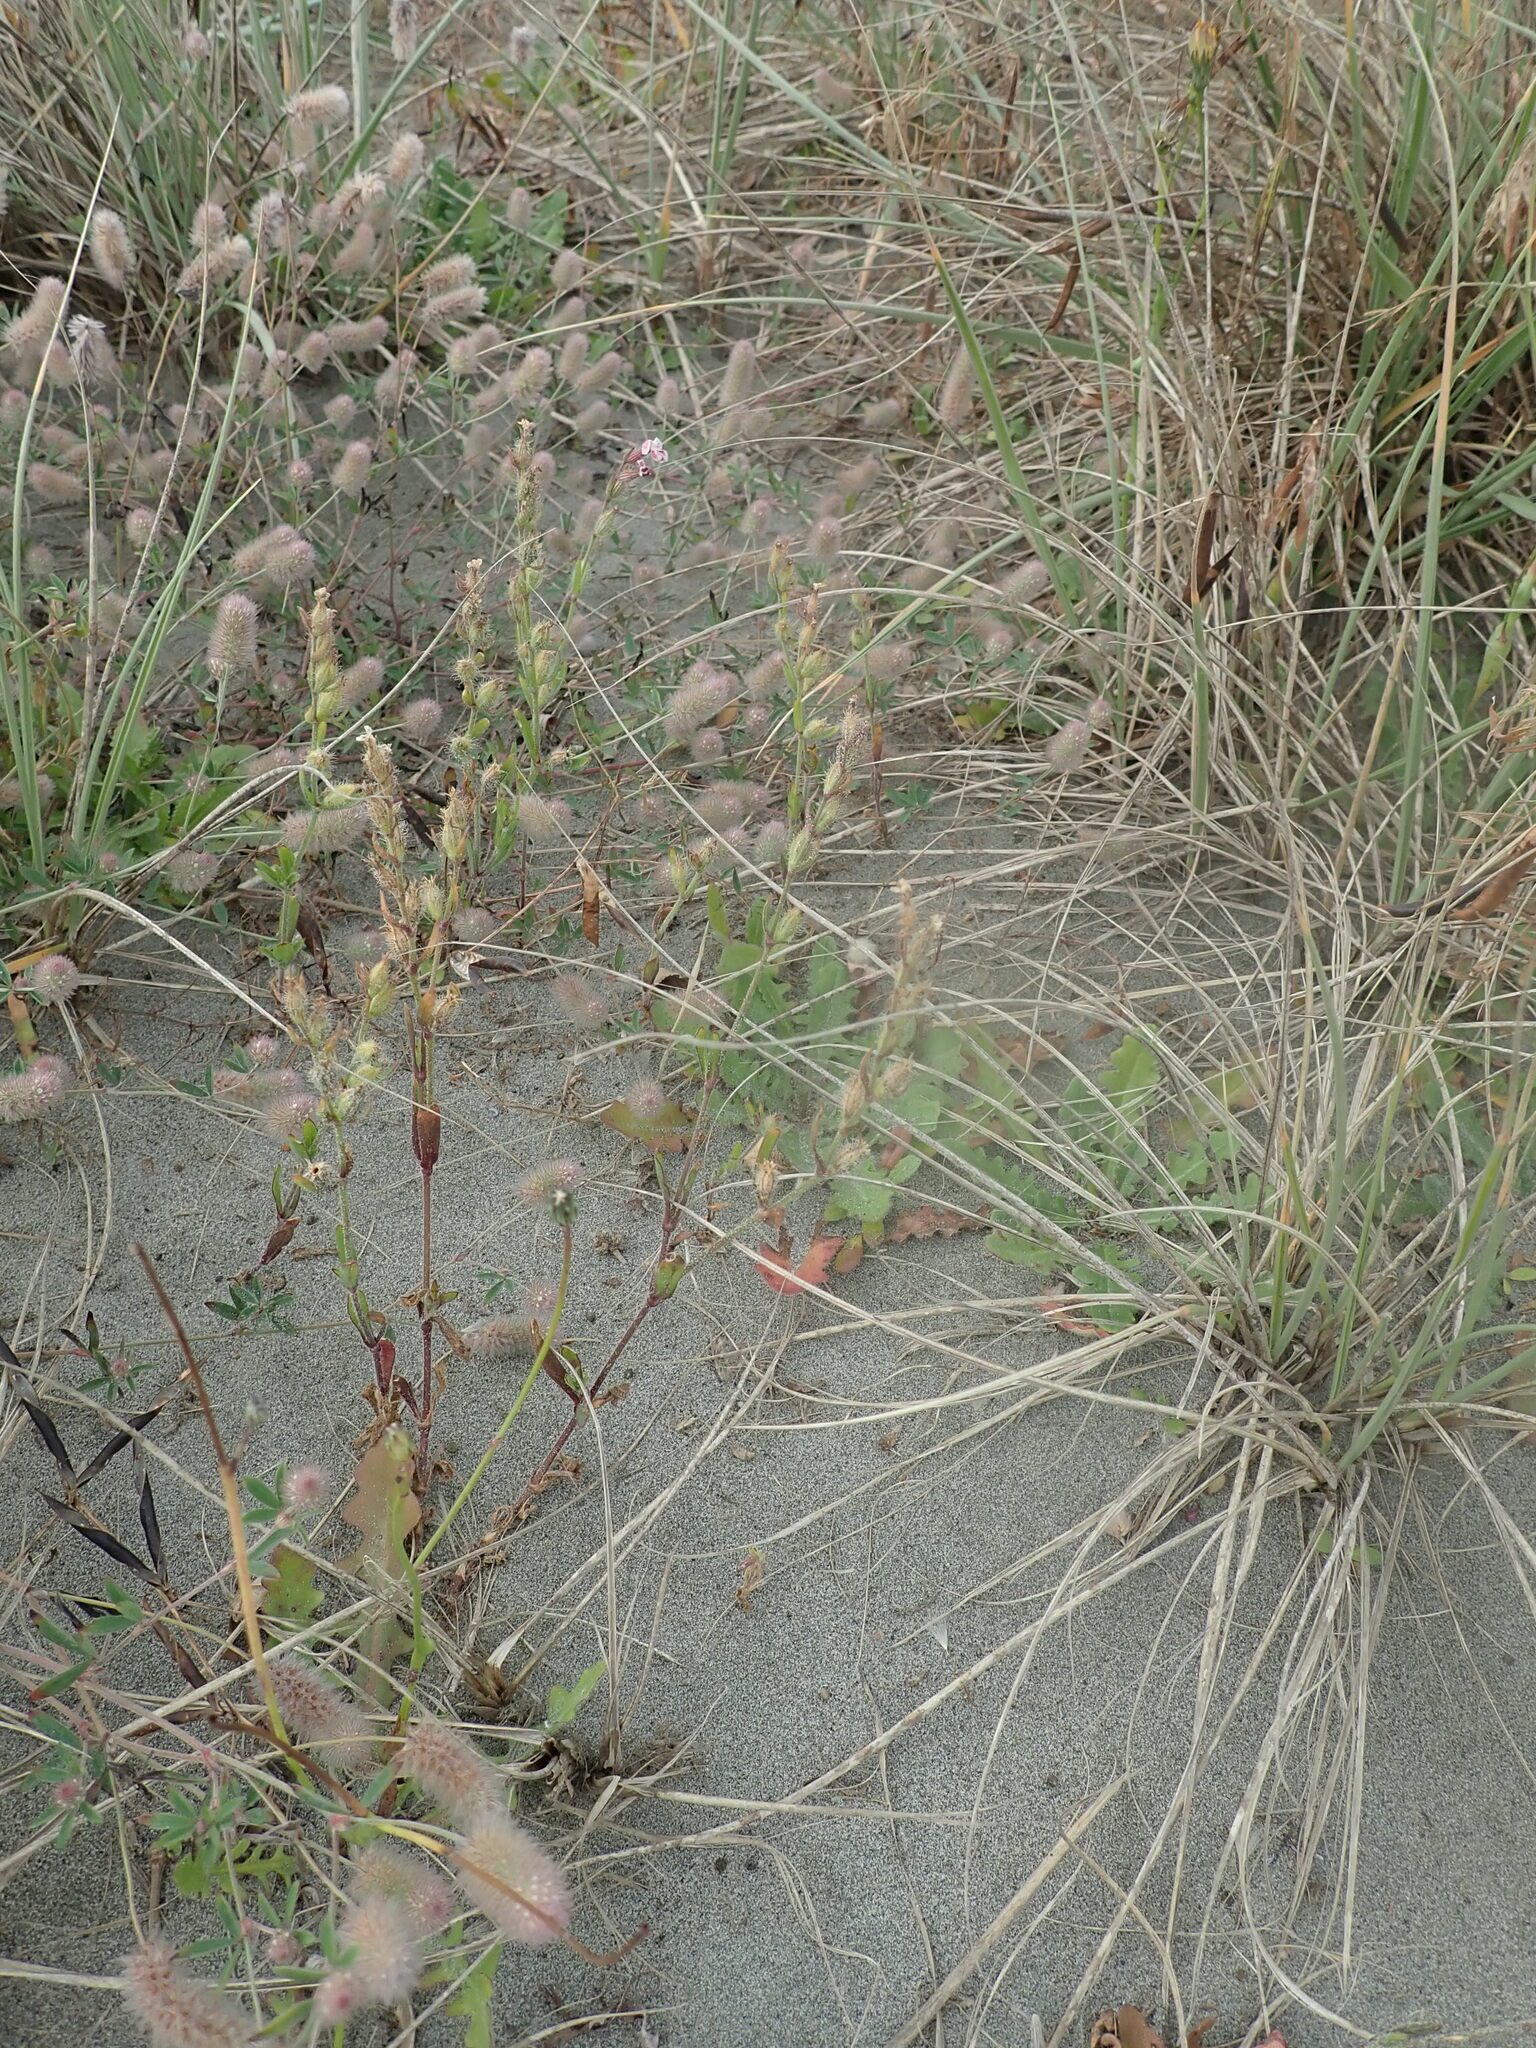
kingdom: Plantae
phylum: Tracheophyta
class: Magnoliopsida
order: Caryophyllales
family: Caryophyllaceae
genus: Silene
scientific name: Silene gallica
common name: Small-flowered catchfly
